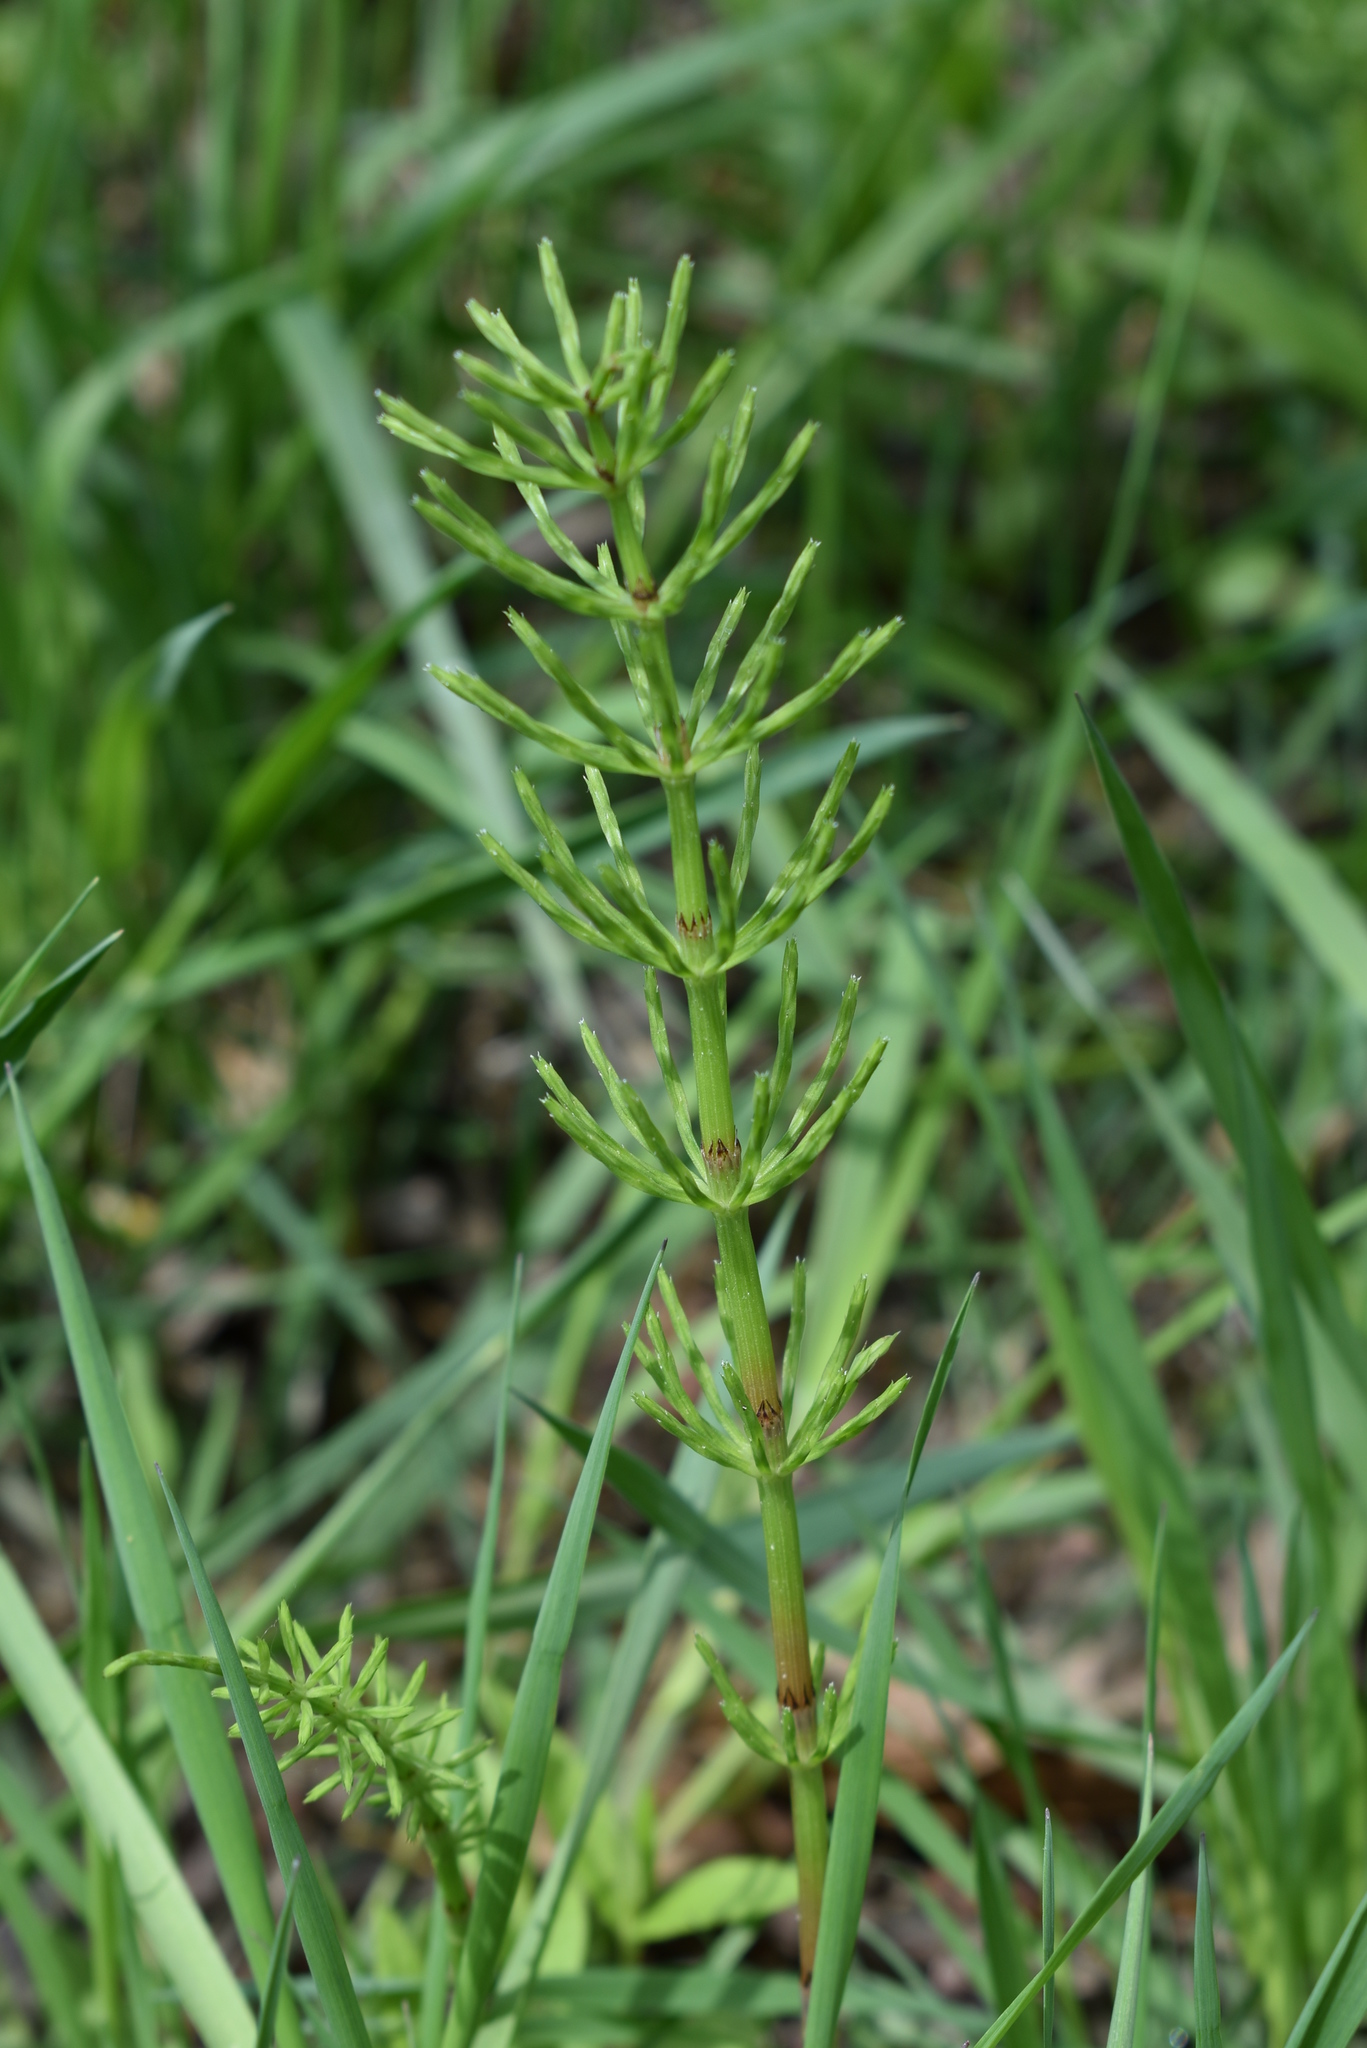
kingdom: Plantae
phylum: Tracheophyta
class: Polypodiopsida
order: Equisetales
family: Equisetaceae
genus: Equisetum
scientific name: Equisetum arvense
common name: Field horsetail
